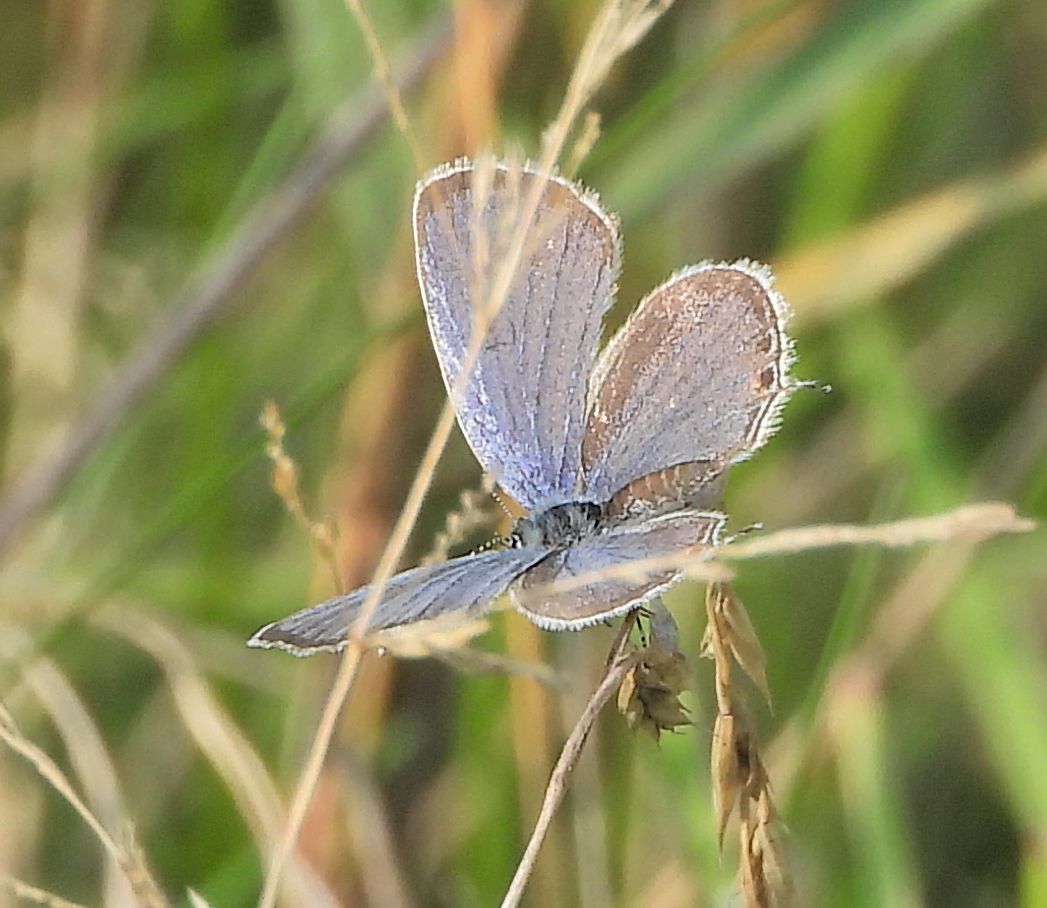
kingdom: Animalia
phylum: Arthropoda
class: Insecta
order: Lepidoptera
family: Lycaenidae
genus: Elkalyce
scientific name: Elkalyce comyntas
